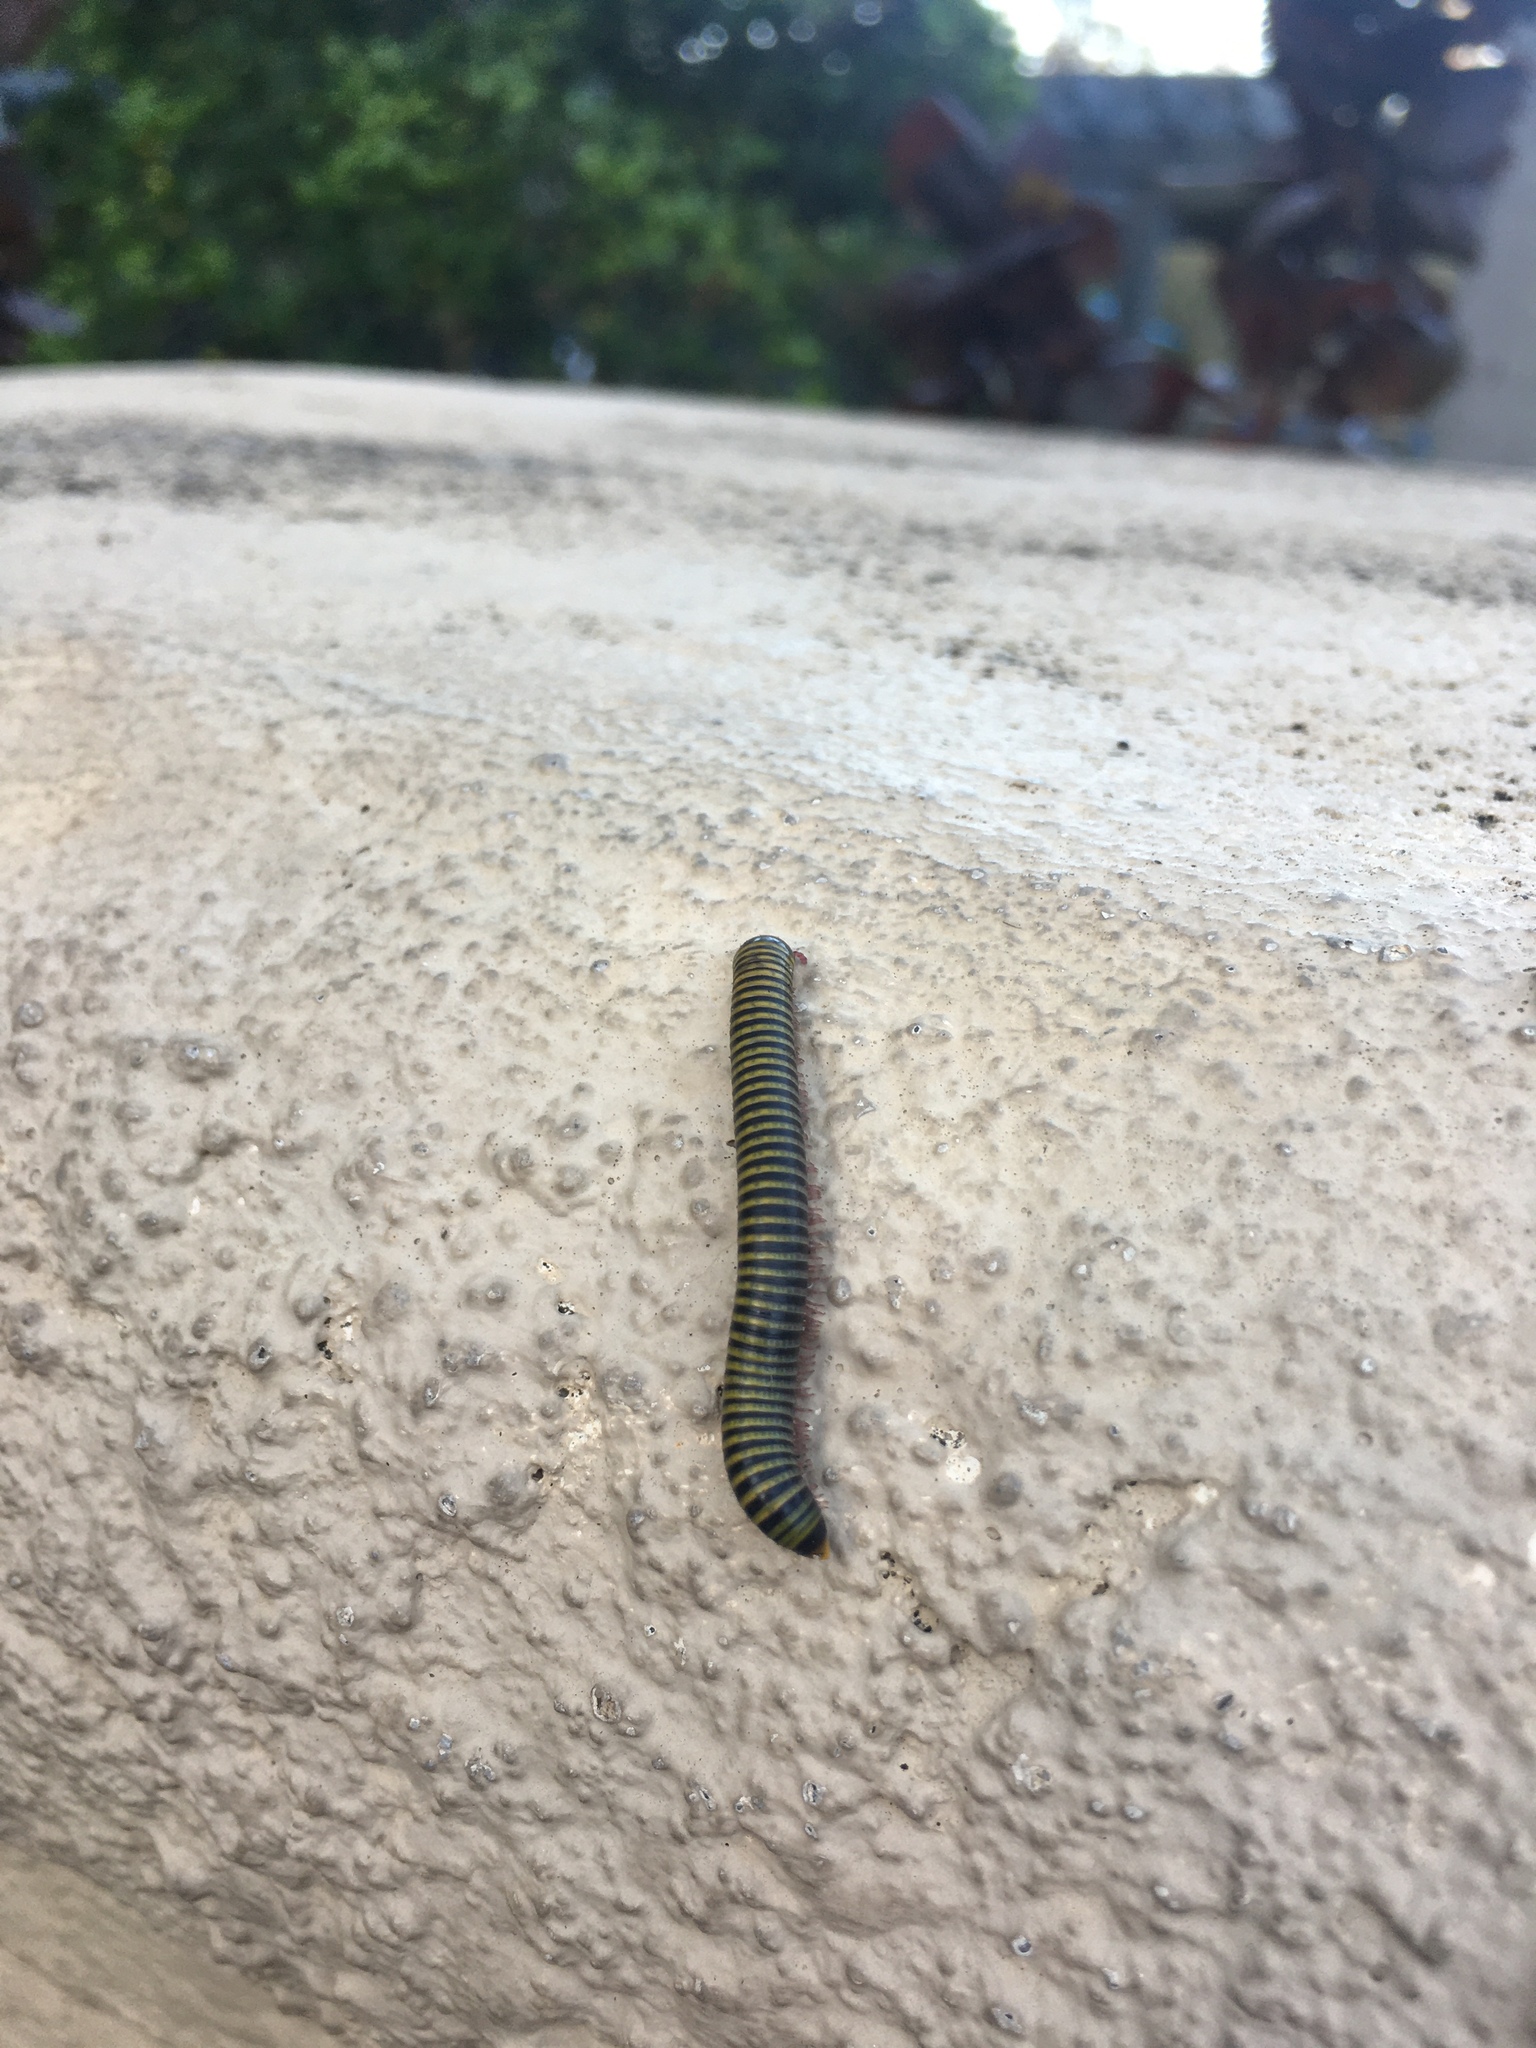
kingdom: Animalia
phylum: Arthropoda
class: Diplopoda
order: Spirobolida
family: Rhinocricidae
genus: Anadenobolus
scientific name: Anadenobolus monilicornis
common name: Caribbean millipede
